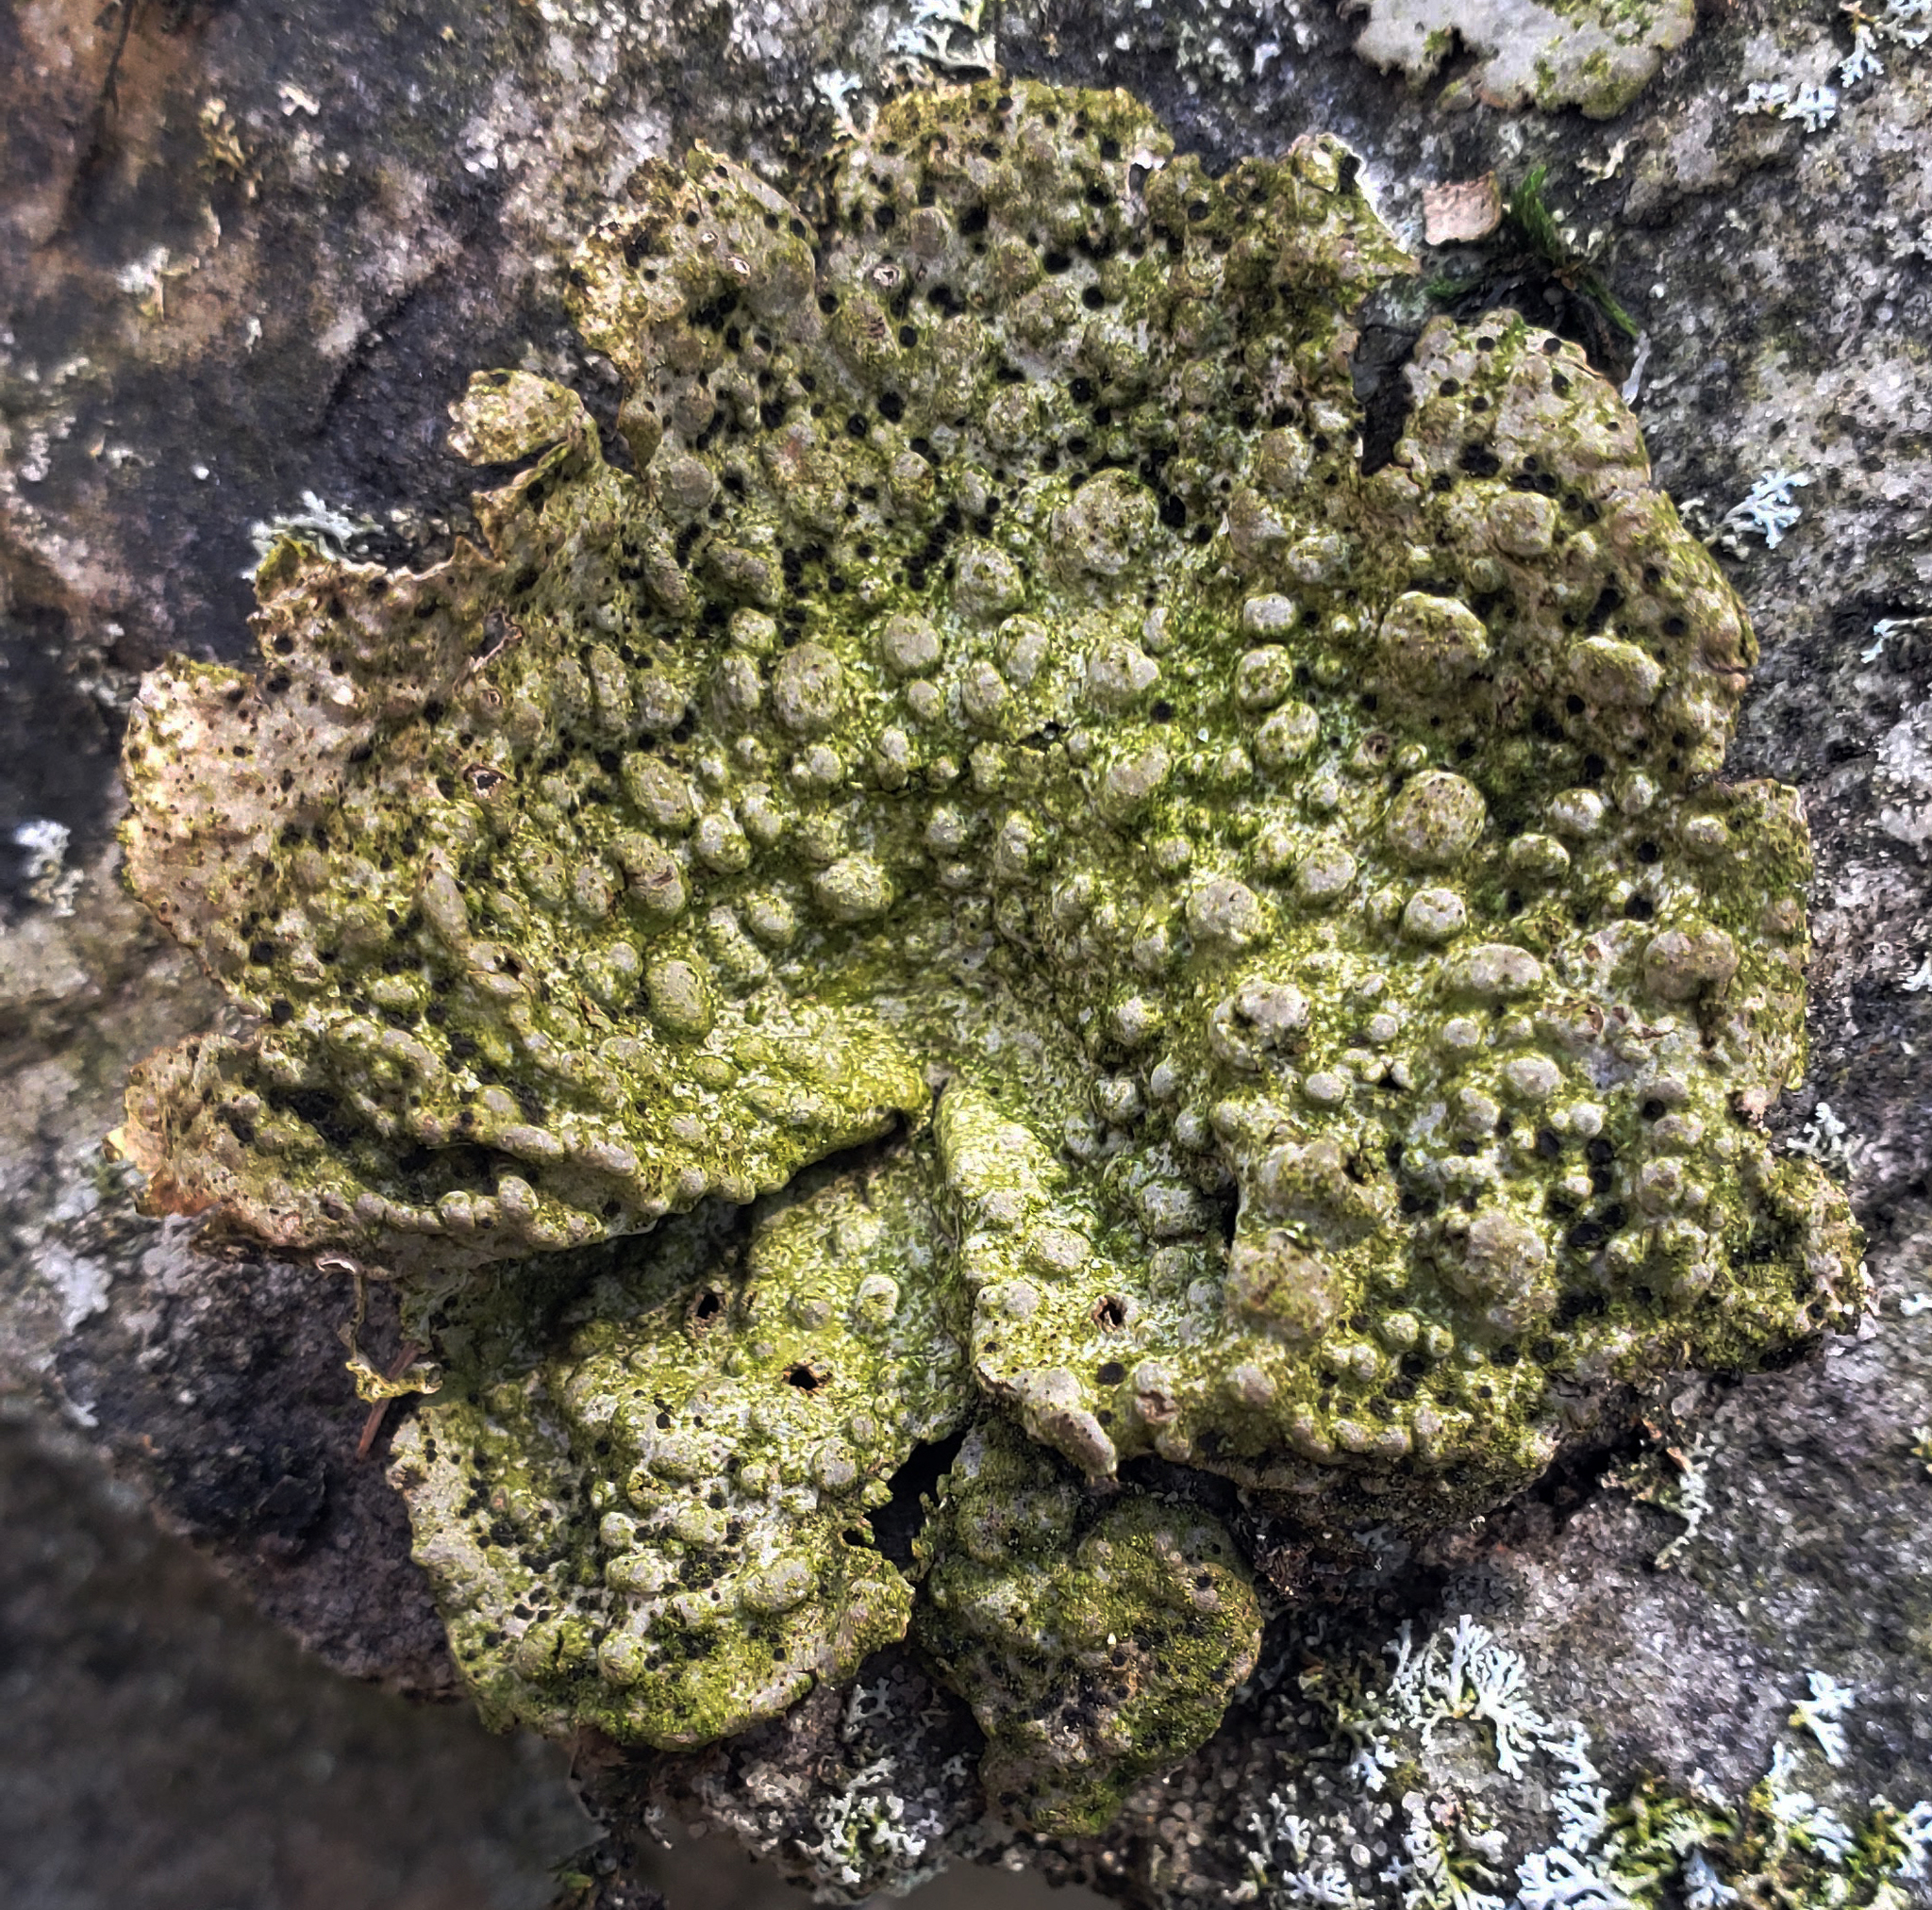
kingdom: Fungi
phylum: Ascomycota
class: Lecanoromycetes
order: Umbilicariales
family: Umbilicariaceae
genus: Lasallia
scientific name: Lasallia papulosa
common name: Common toadskin lichen
